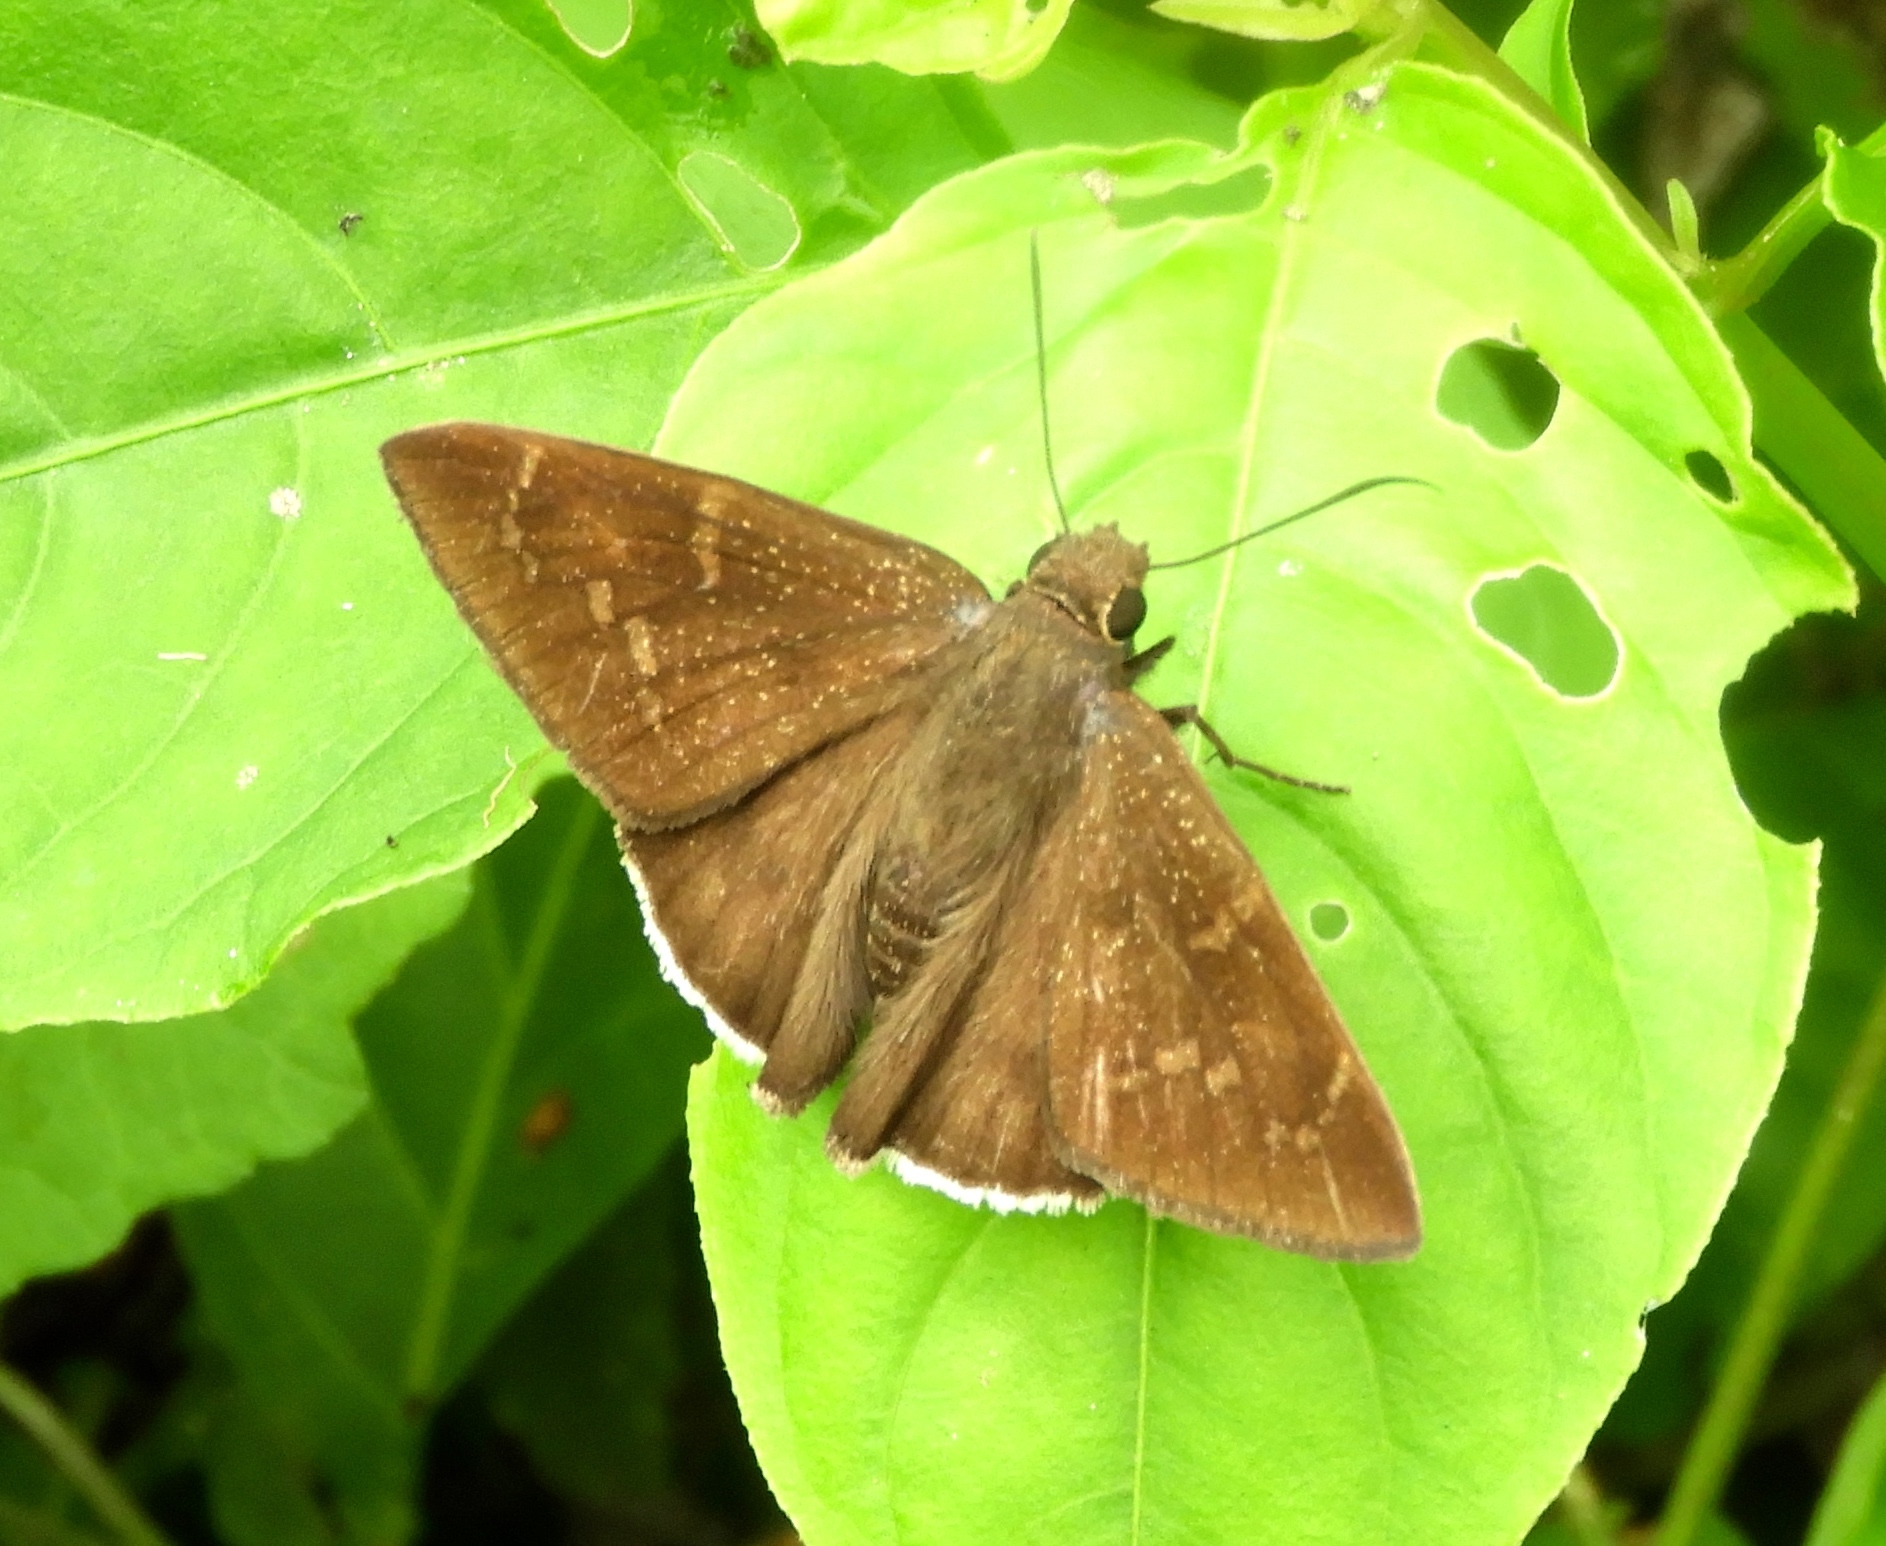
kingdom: Animalia
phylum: Arthropoda
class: Insecta
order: Lepidoptera
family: Hesperiidae
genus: Achalarus
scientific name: Achalarus Murgaria albociliatus
